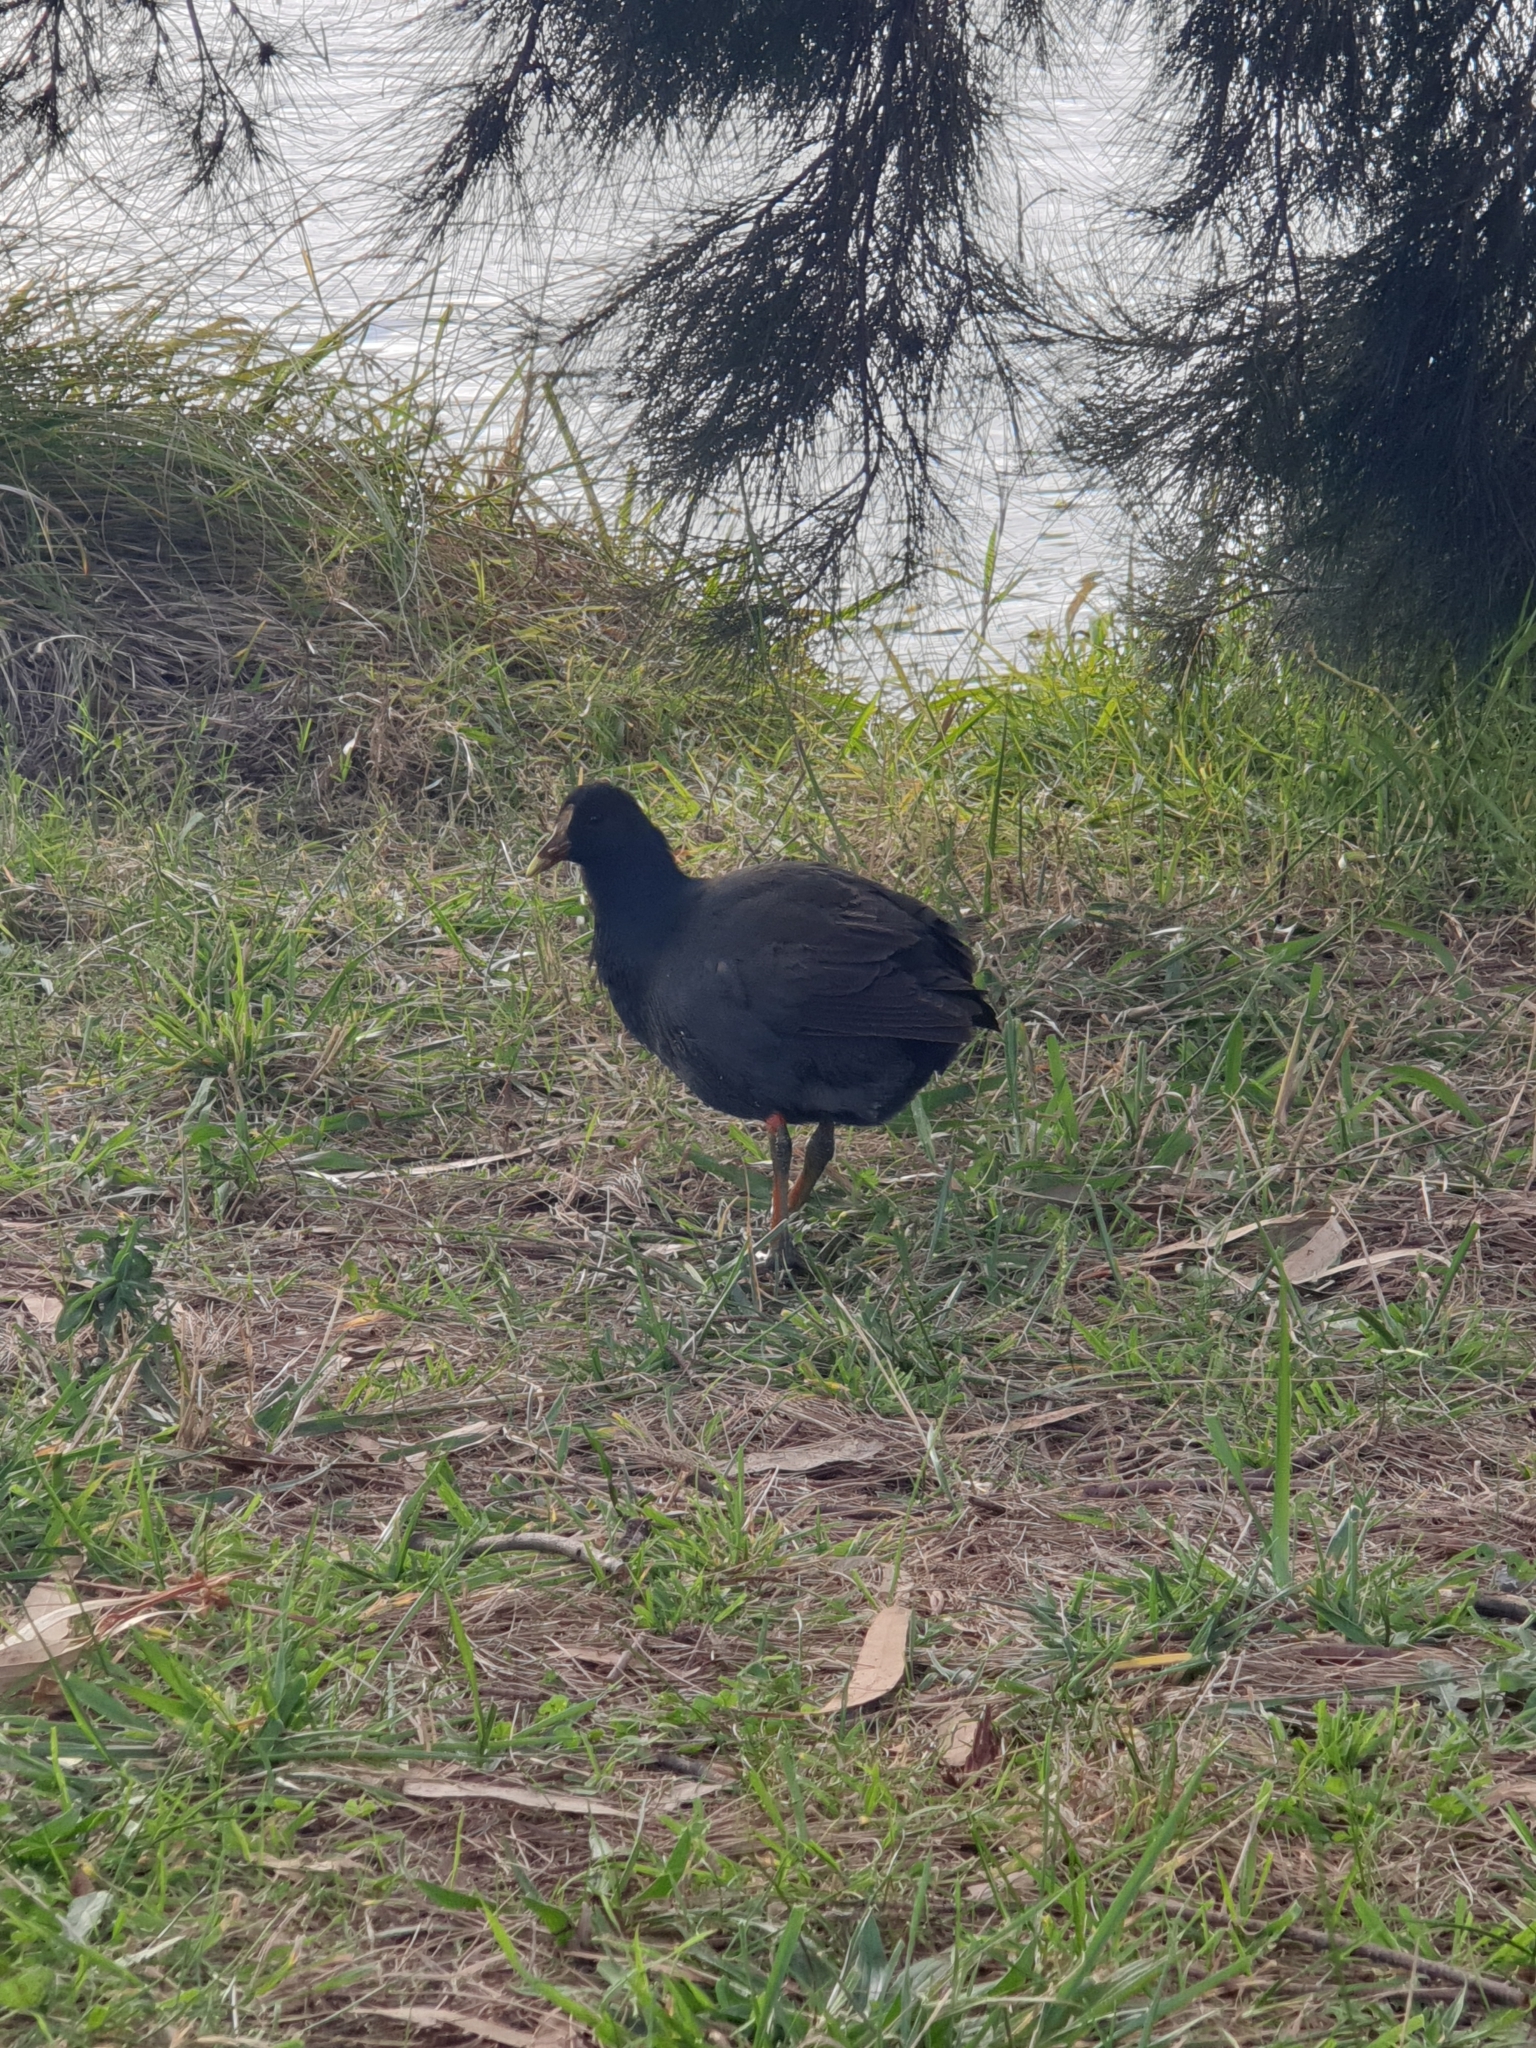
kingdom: Animalia
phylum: Chordata
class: Aves
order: Gruiformes
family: Rallidae
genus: Gallinula
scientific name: Gallinula tenebrosa
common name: Dusky moorhen
